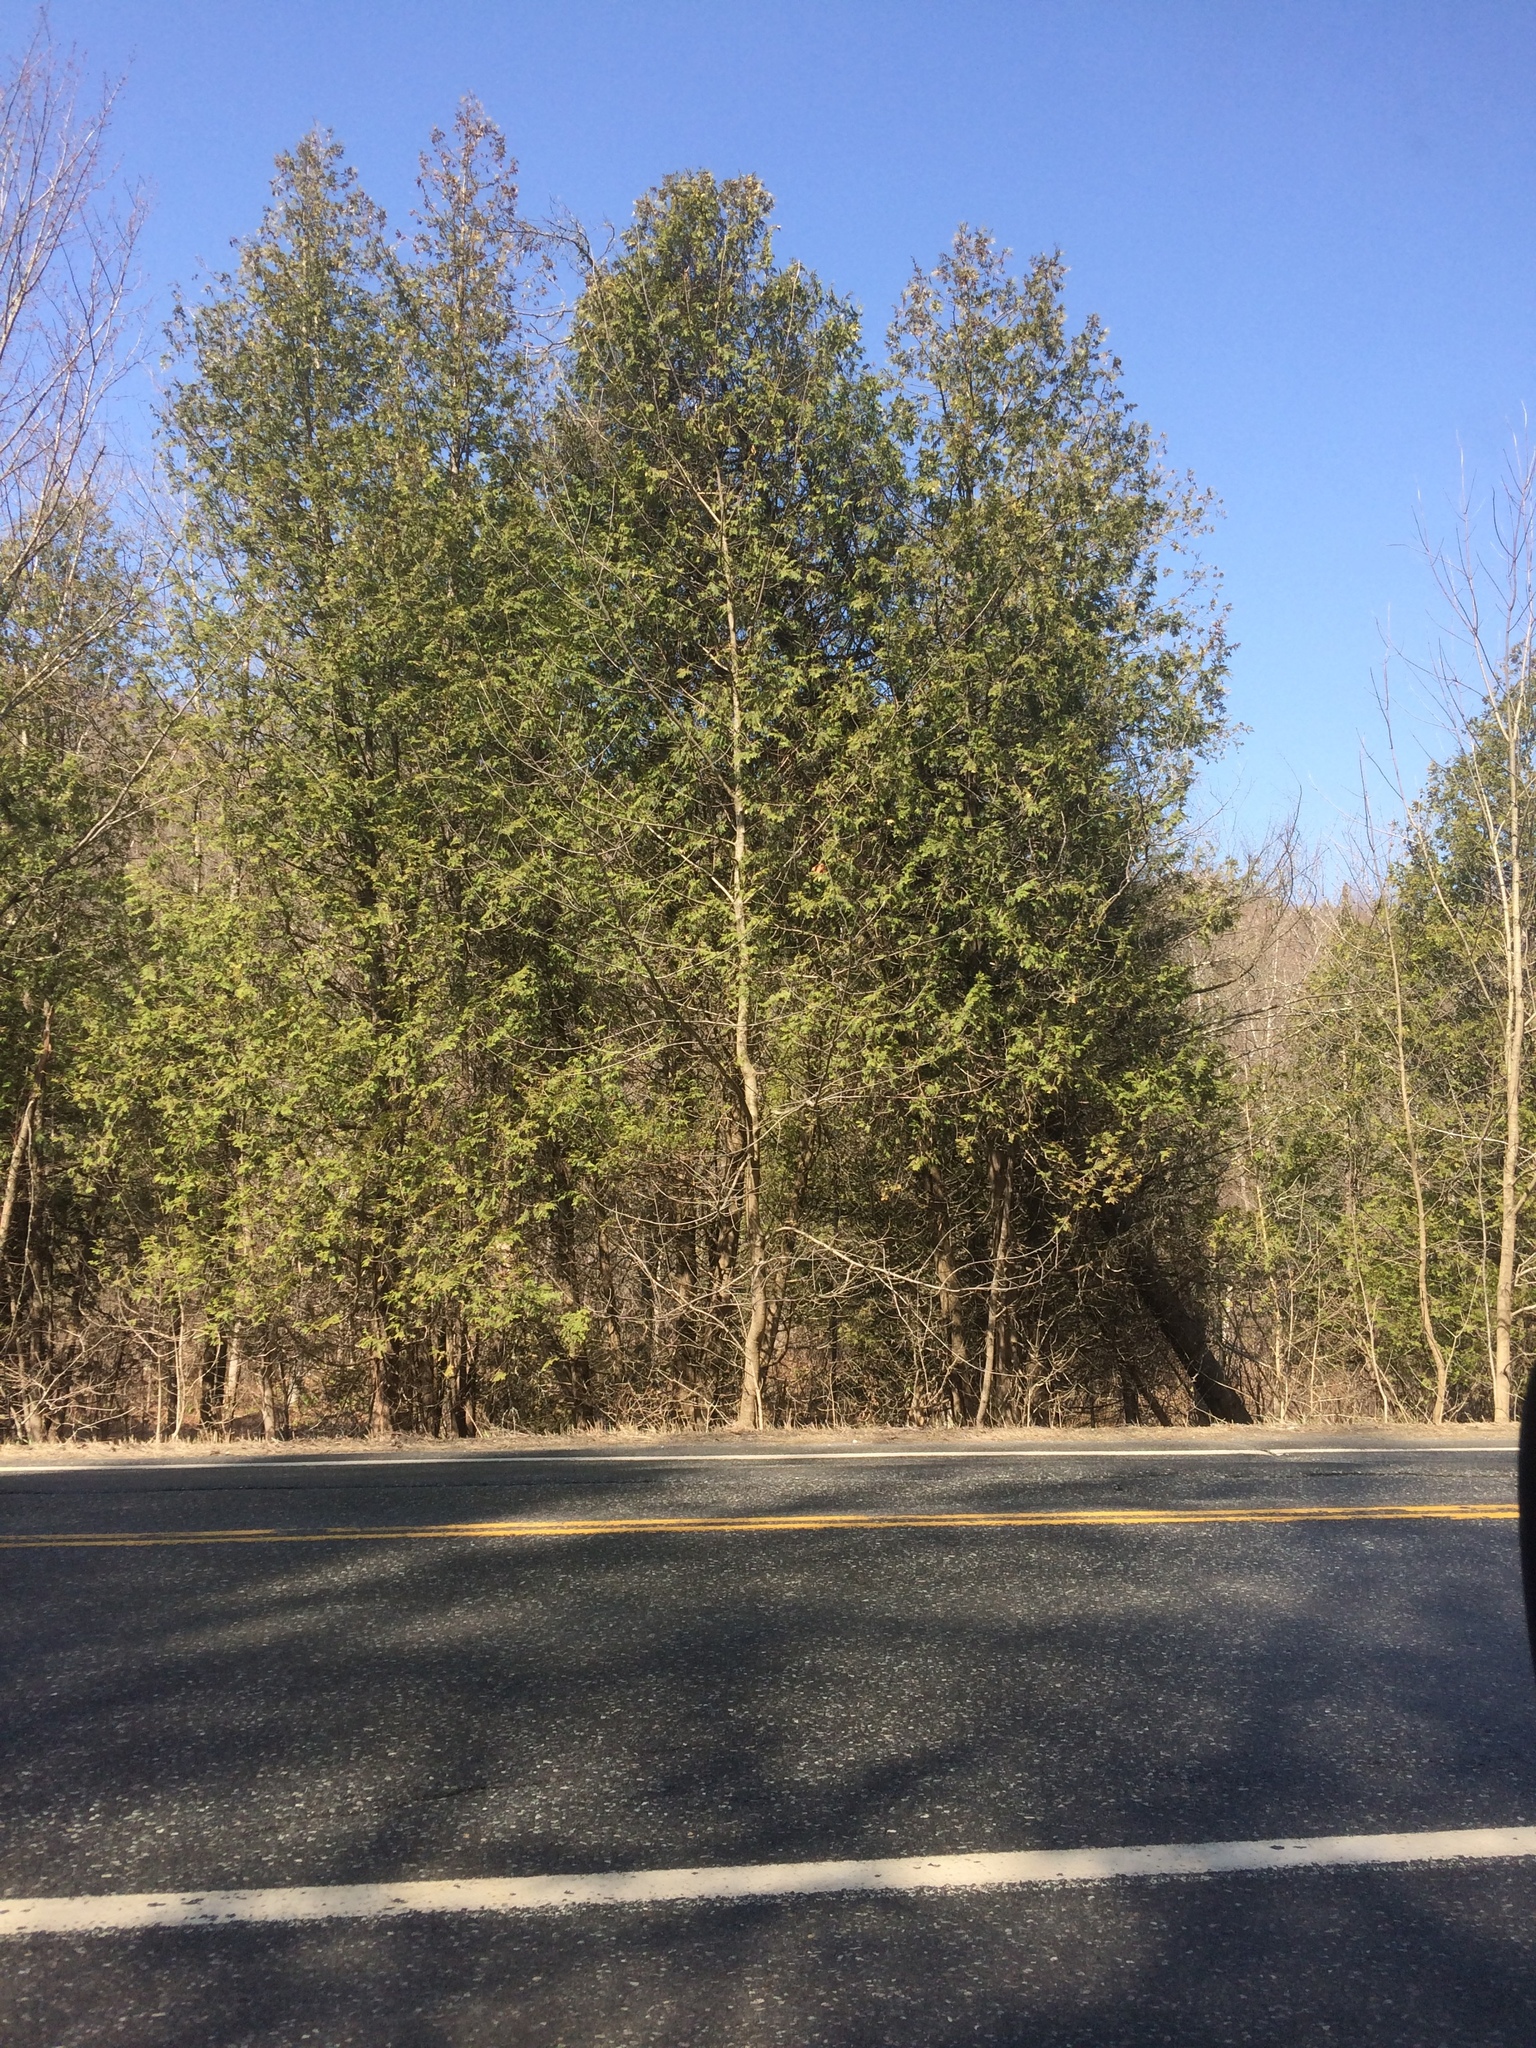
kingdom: Plantae
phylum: Tracheophyta
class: Pinopsida
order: Pinales
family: Cupressaceae
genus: Thuja
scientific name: Thuja occidentalis
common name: Northern white-cedar
